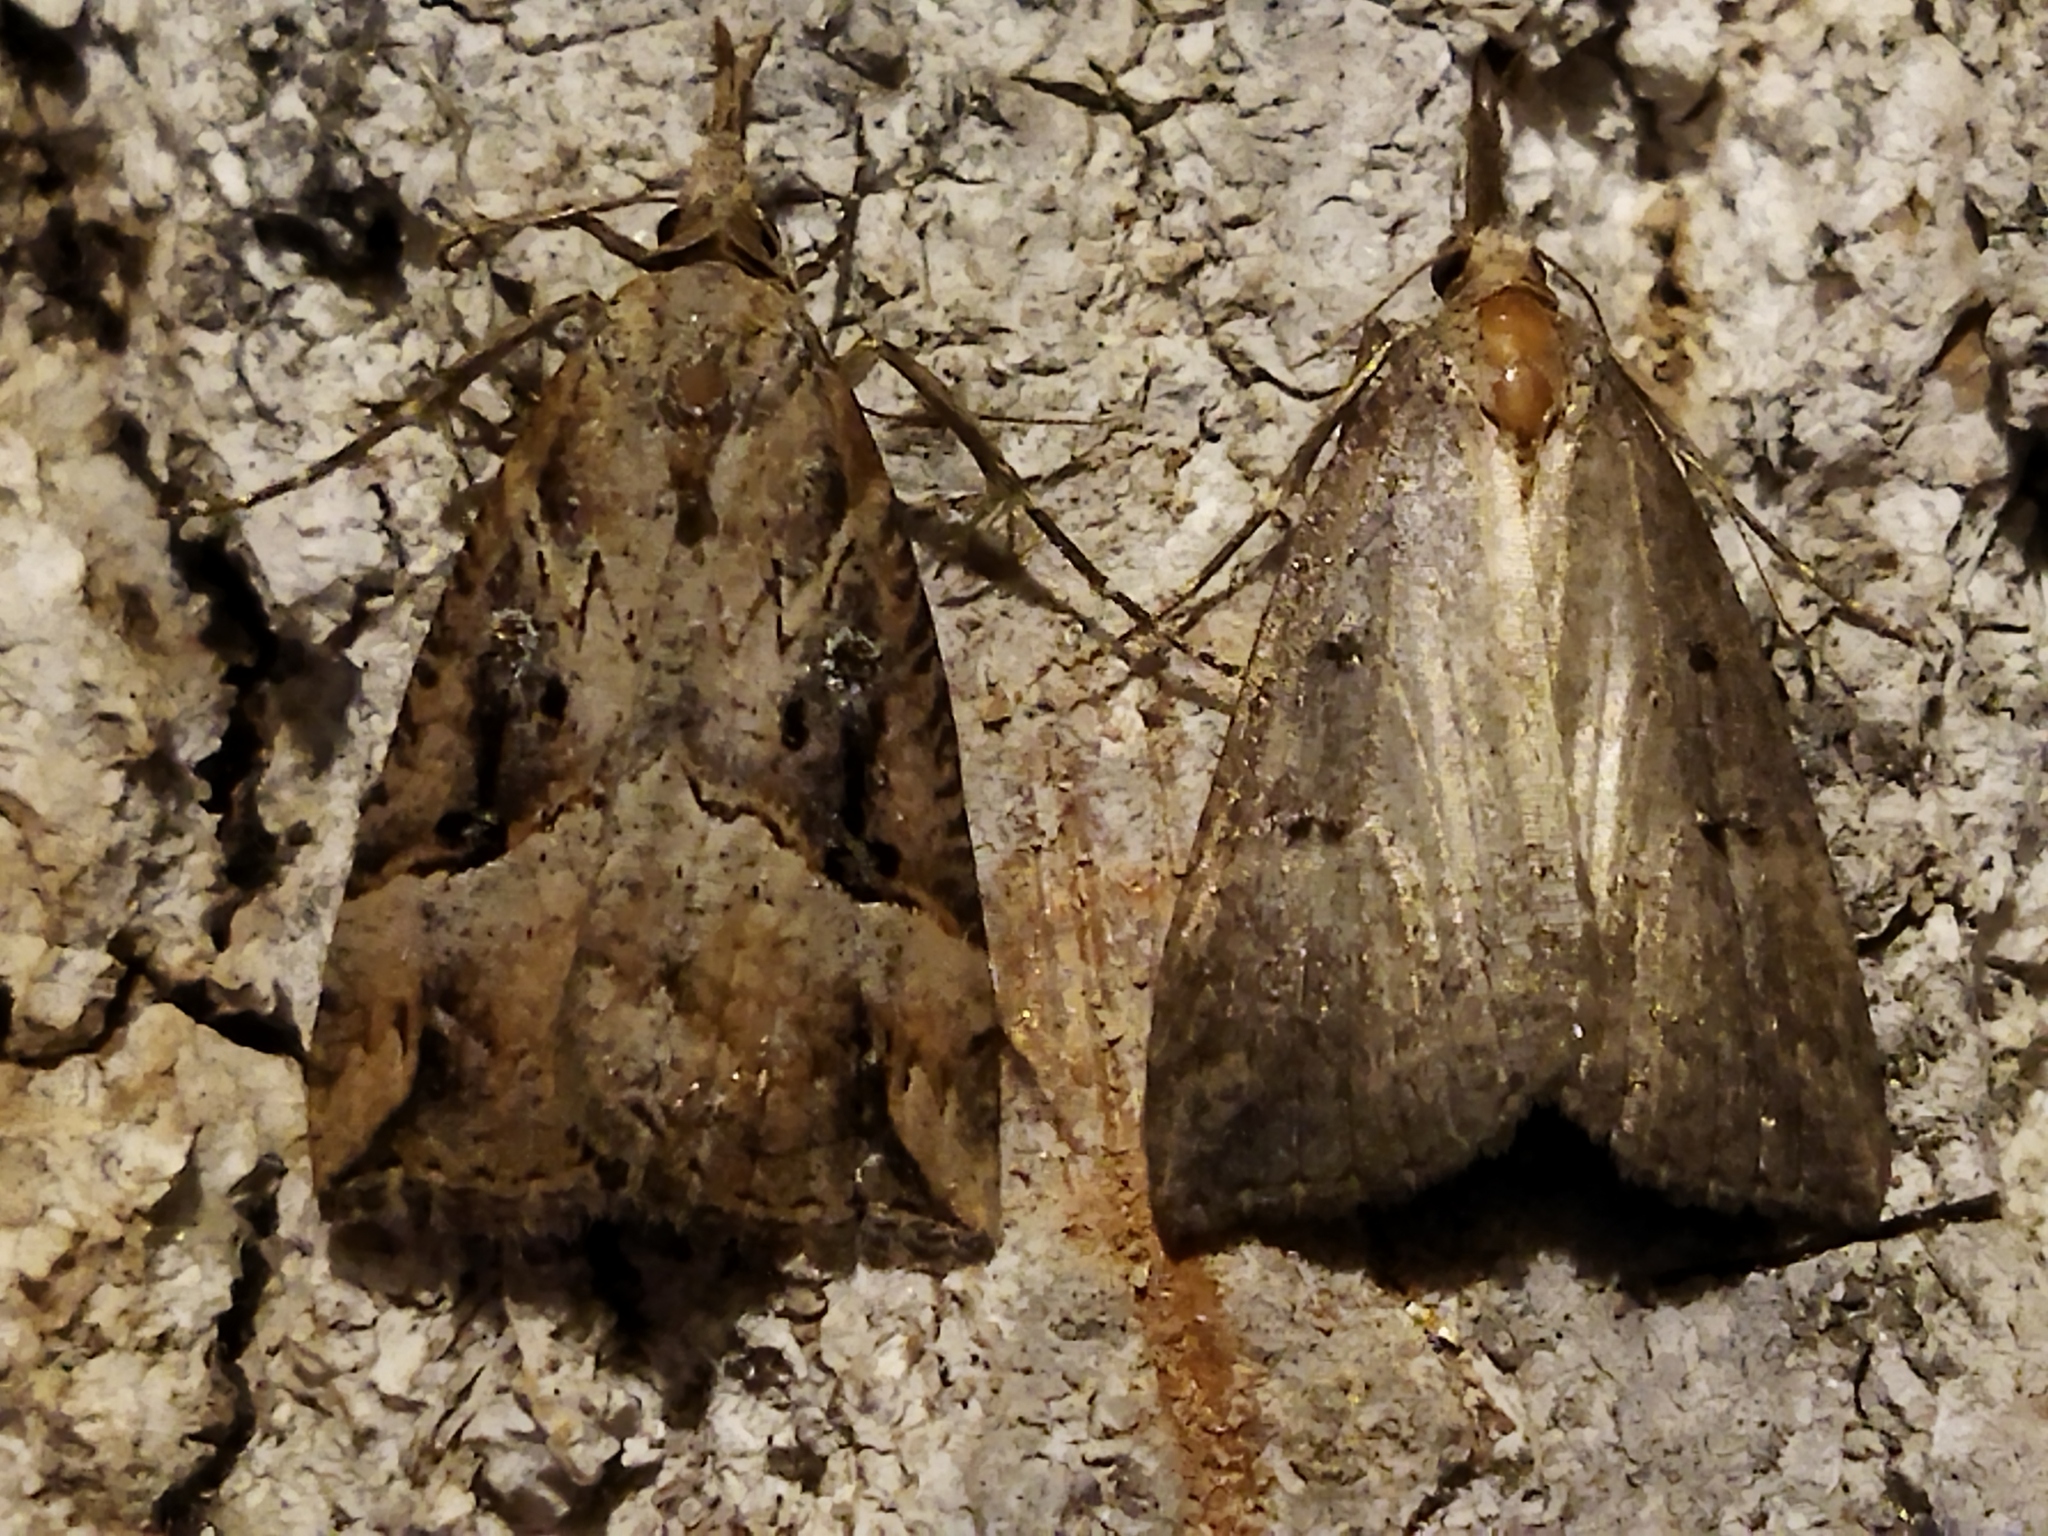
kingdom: Animalia
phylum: Arthropoda
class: Insecta
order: Lepidoptera
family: Erebidae
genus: Hypena
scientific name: Hypena rostralis
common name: Buttoned snout
